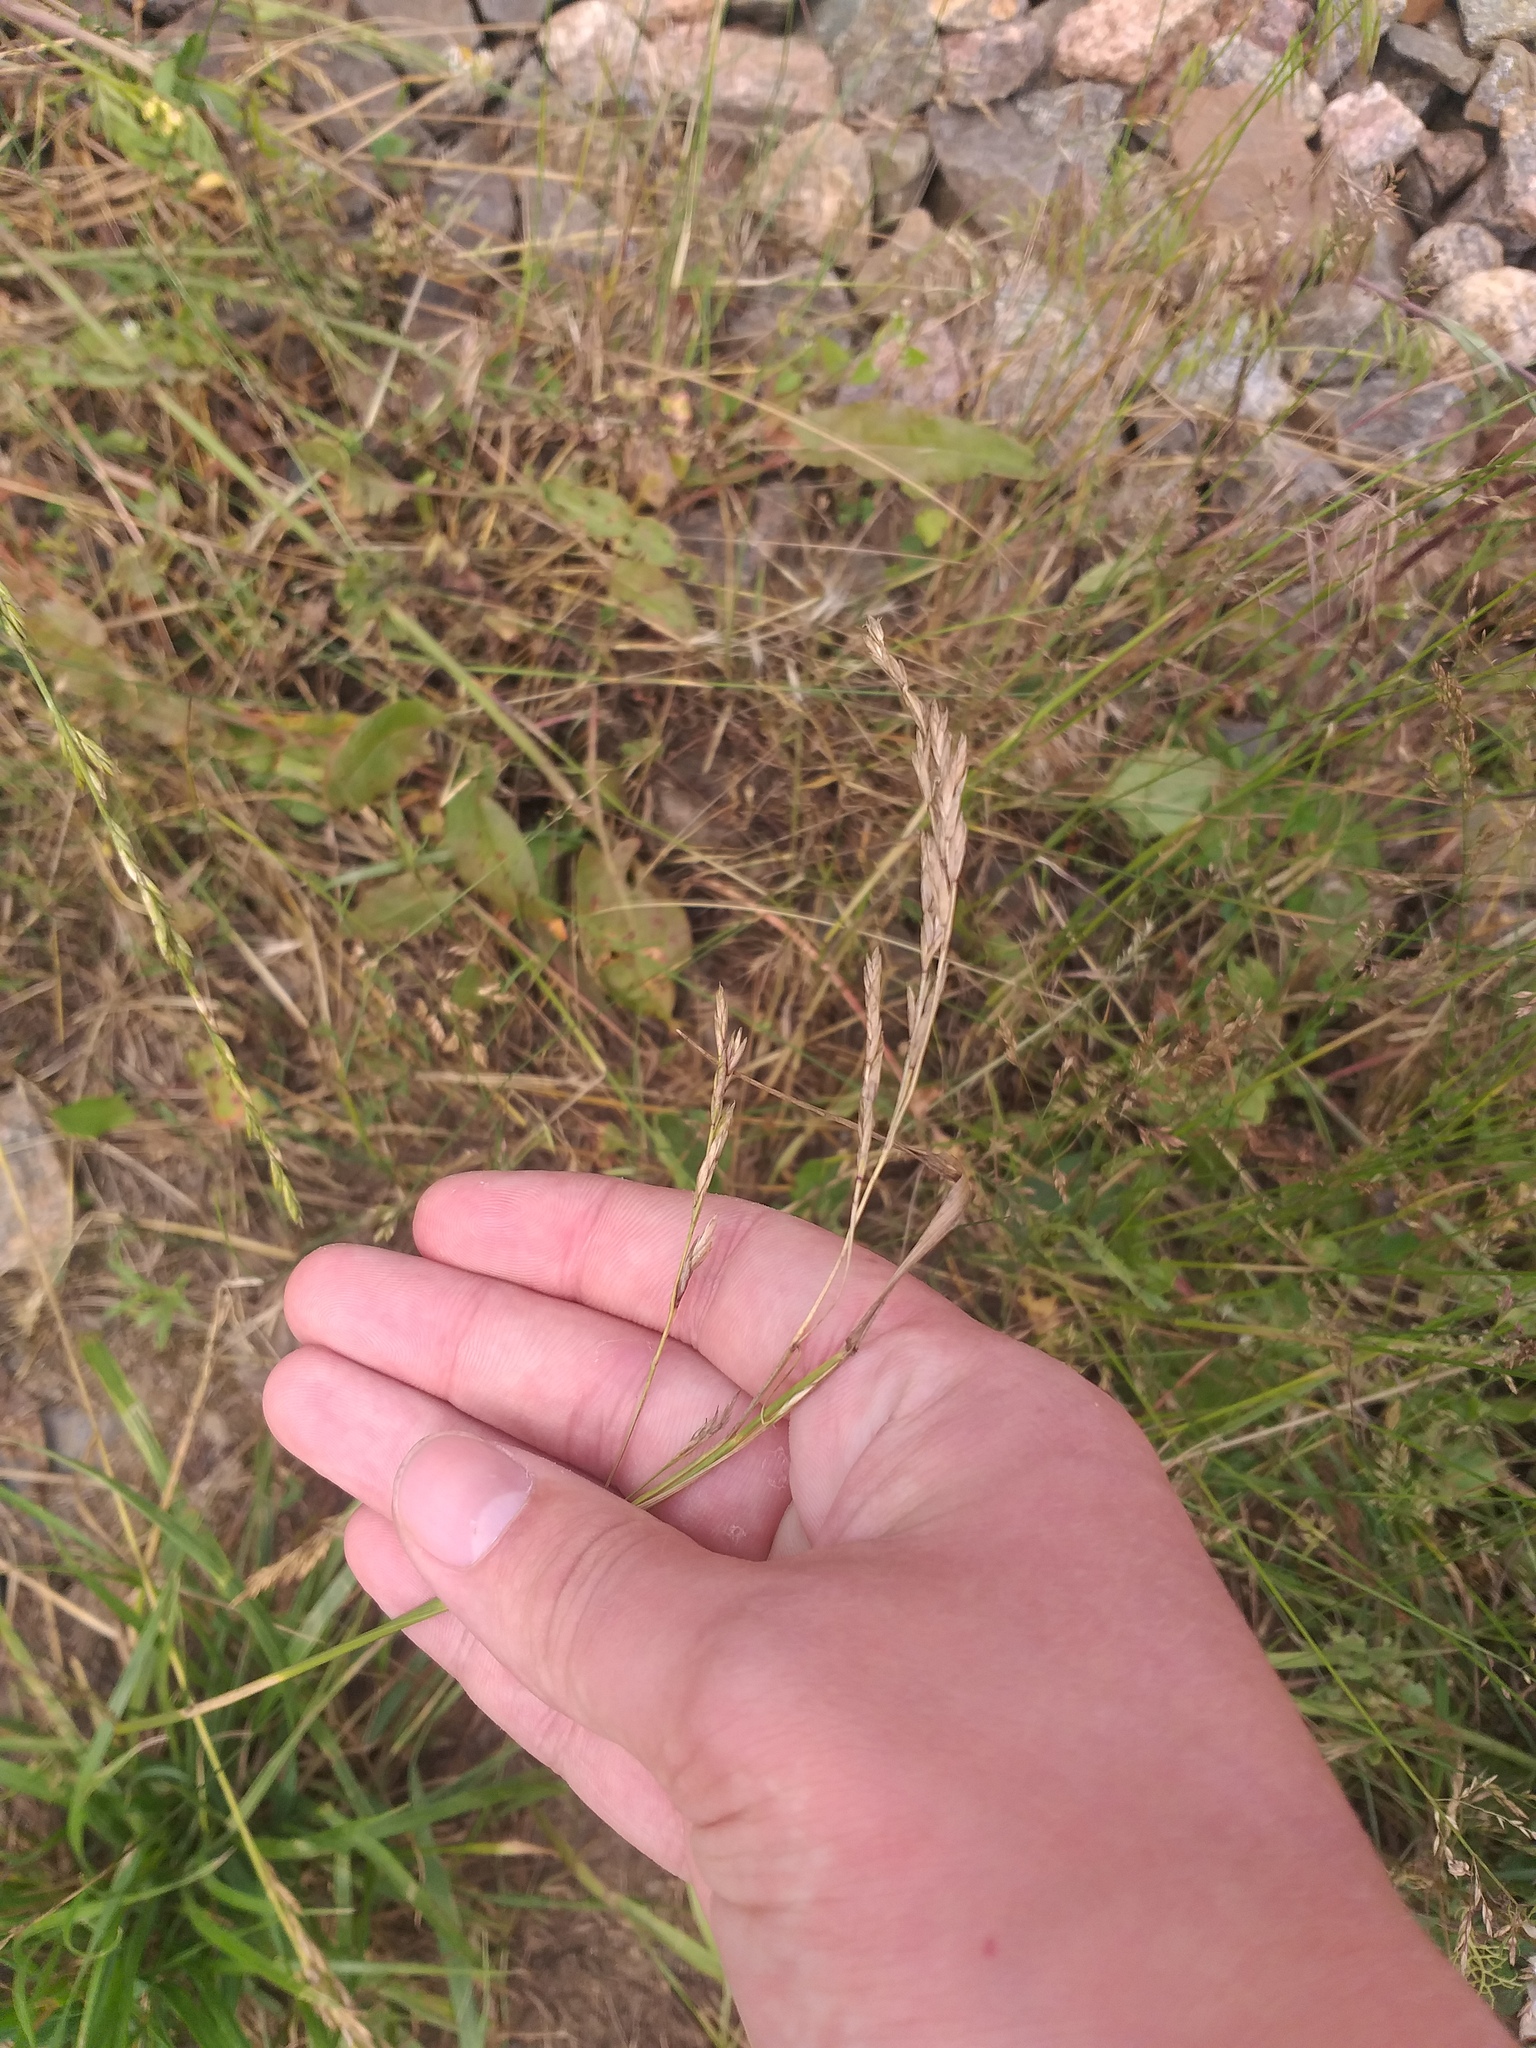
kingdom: Plantae
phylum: Tracheophyta
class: Liliopsida
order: Poales
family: Poaceae
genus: Lolium
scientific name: Lolium arundinaceum
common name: Reed fescue
